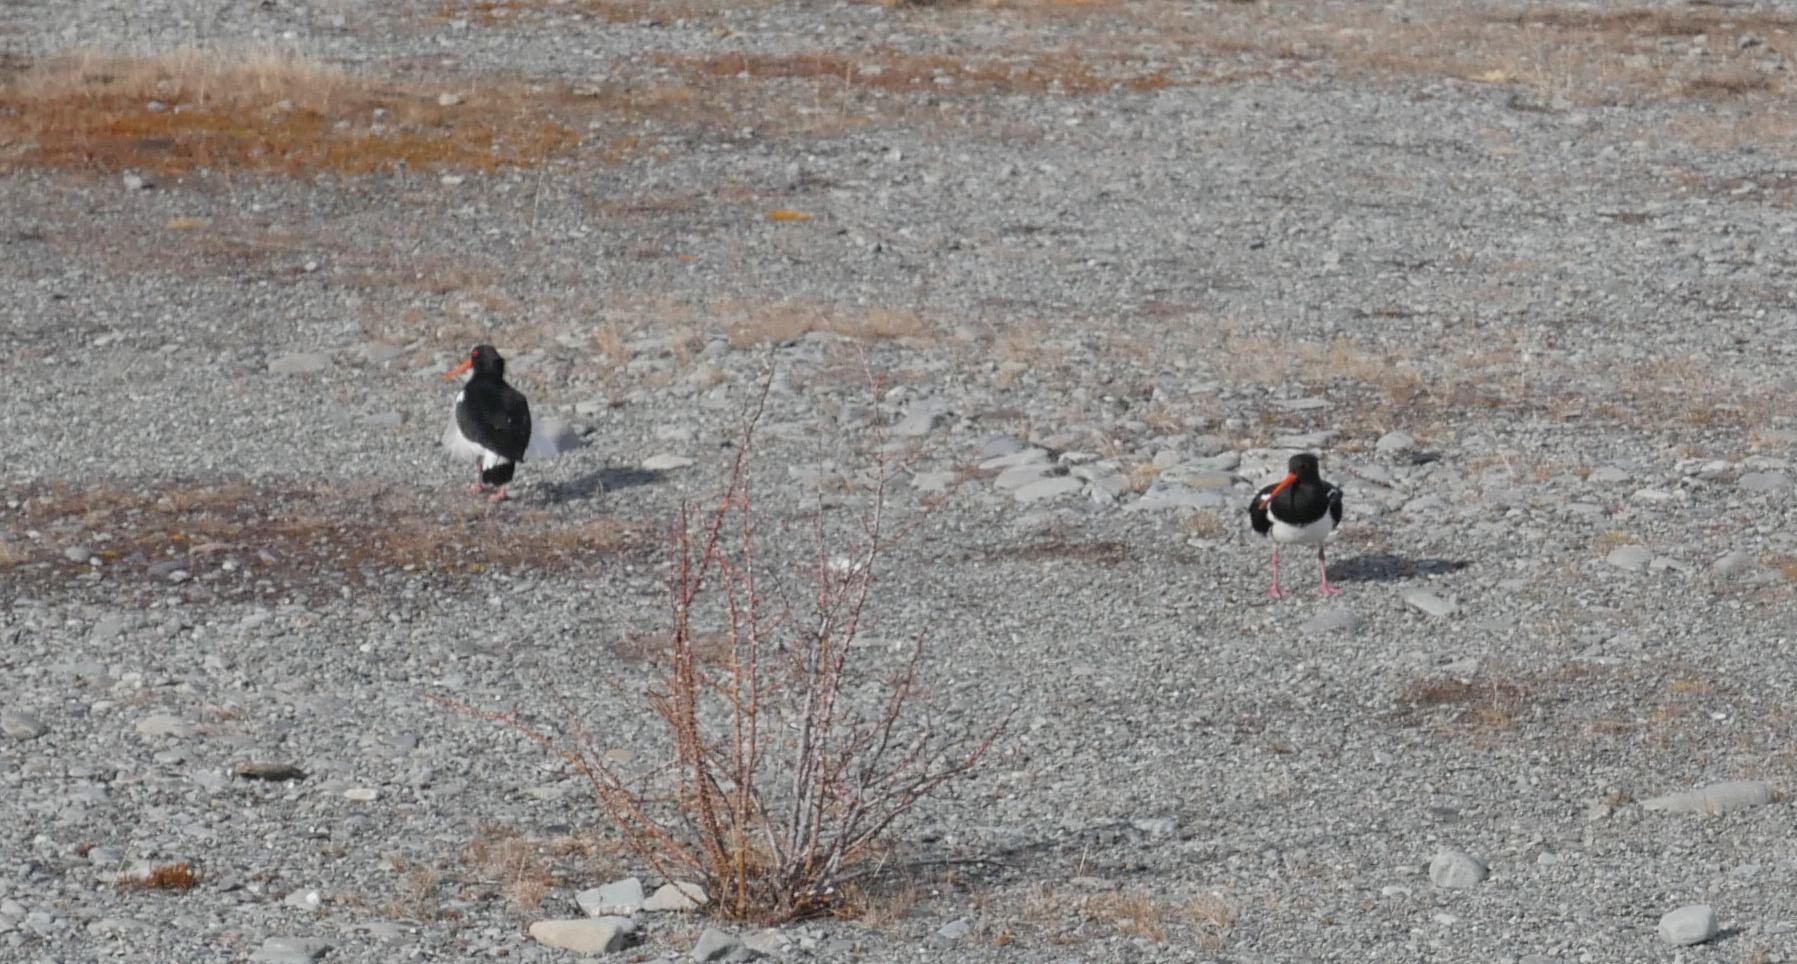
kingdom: Animalia
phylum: Chordata
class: Aves
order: Charadriiformes
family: Haematopodidae
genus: Haematopus
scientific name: Haematopus finschi
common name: South island oystercatcher
